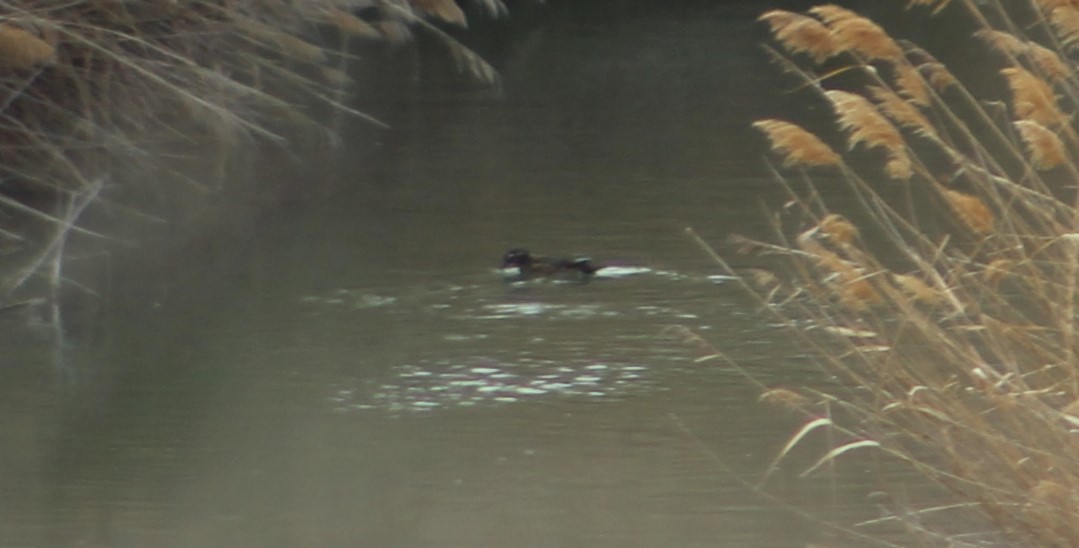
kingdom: Animalia
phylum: Chordata
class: Aves
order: Anseriformes
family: Anatidae
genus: Aix
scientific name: Aix sponsa
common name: Wood duck
